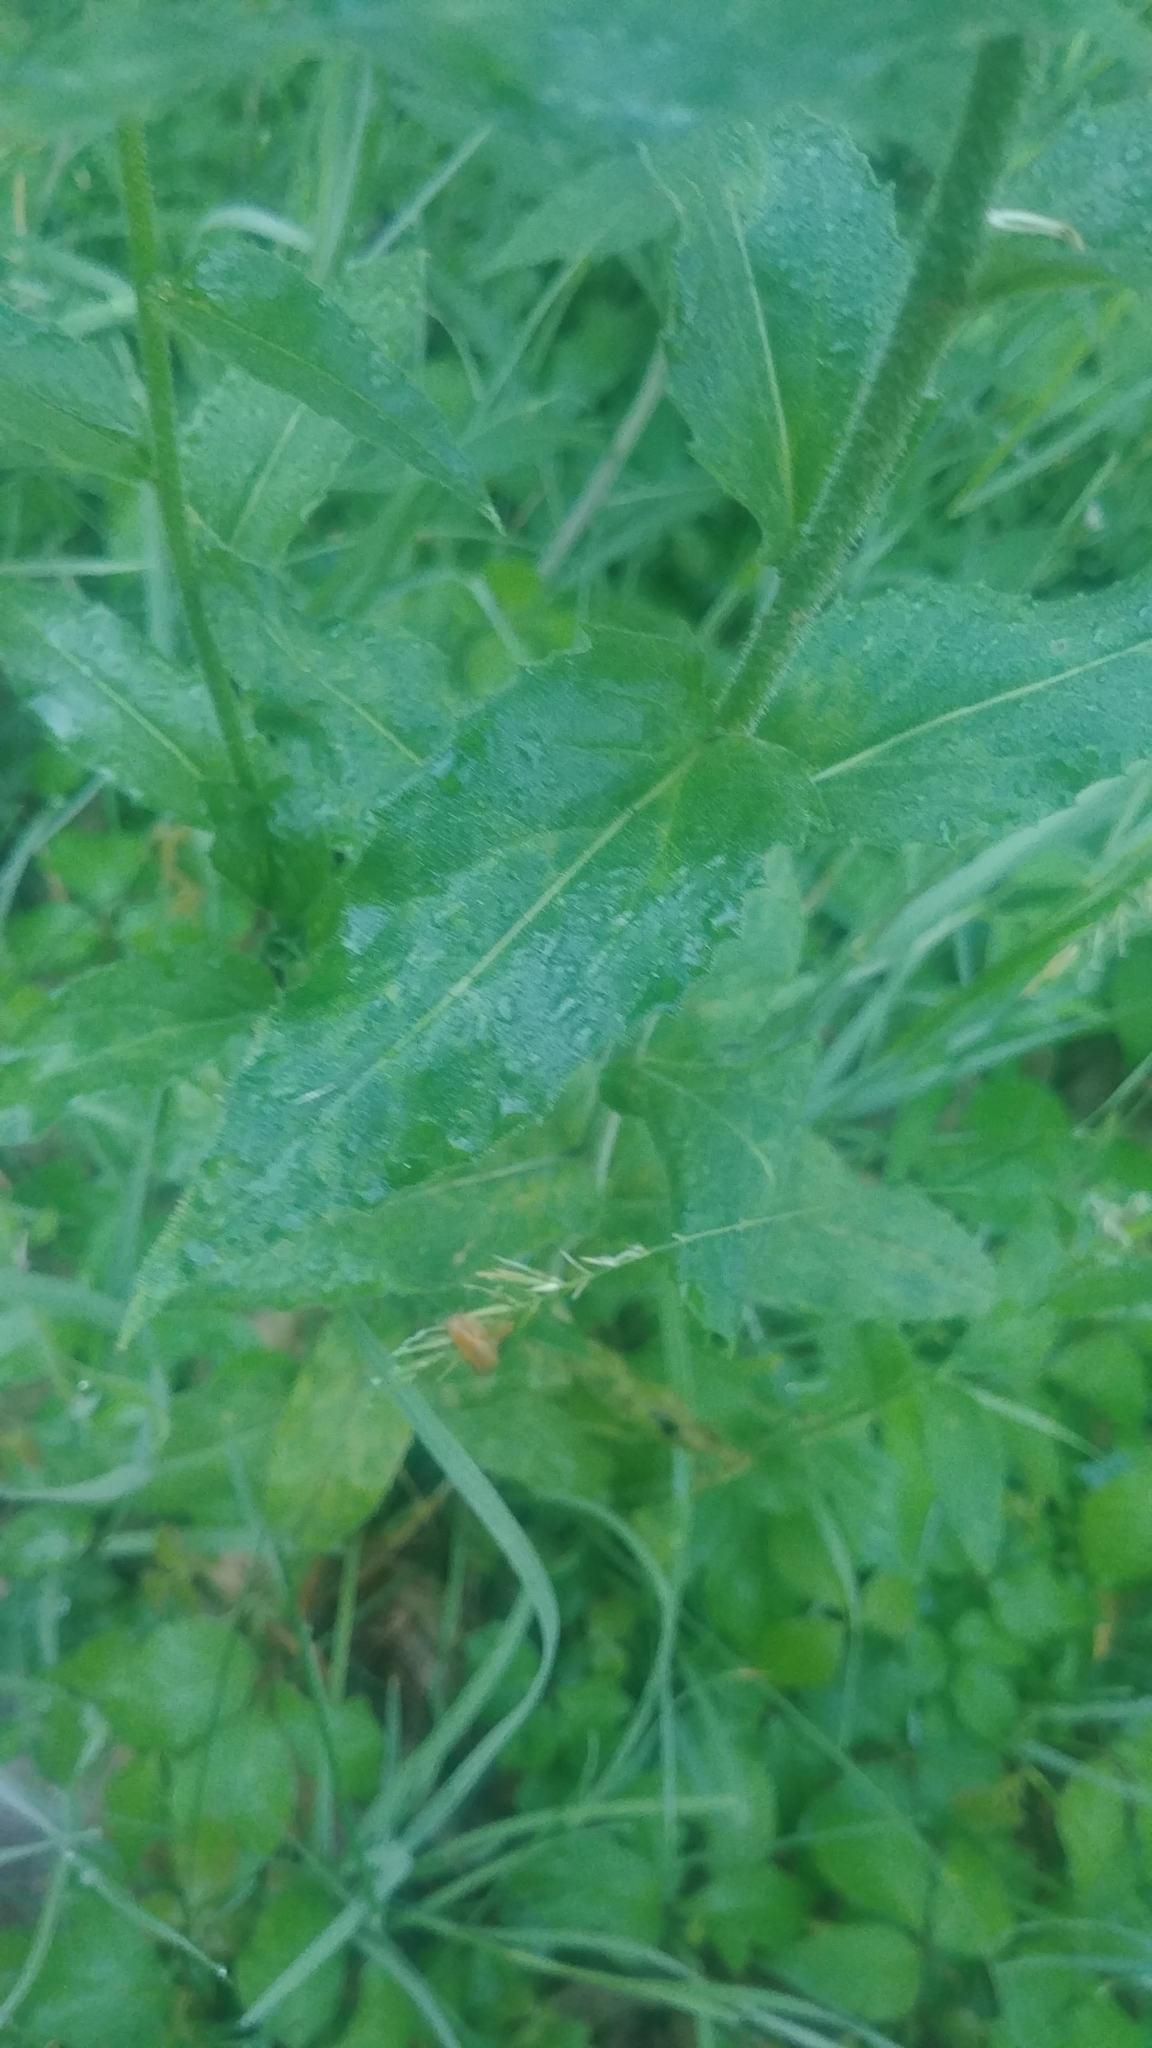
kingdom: Plantae
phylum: Tracheophyta
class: Magnoliopsida
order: Brassicales
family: Brassicaceae
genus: Hesperis
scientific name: Hesperis matronalis
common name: Dame's-violet
